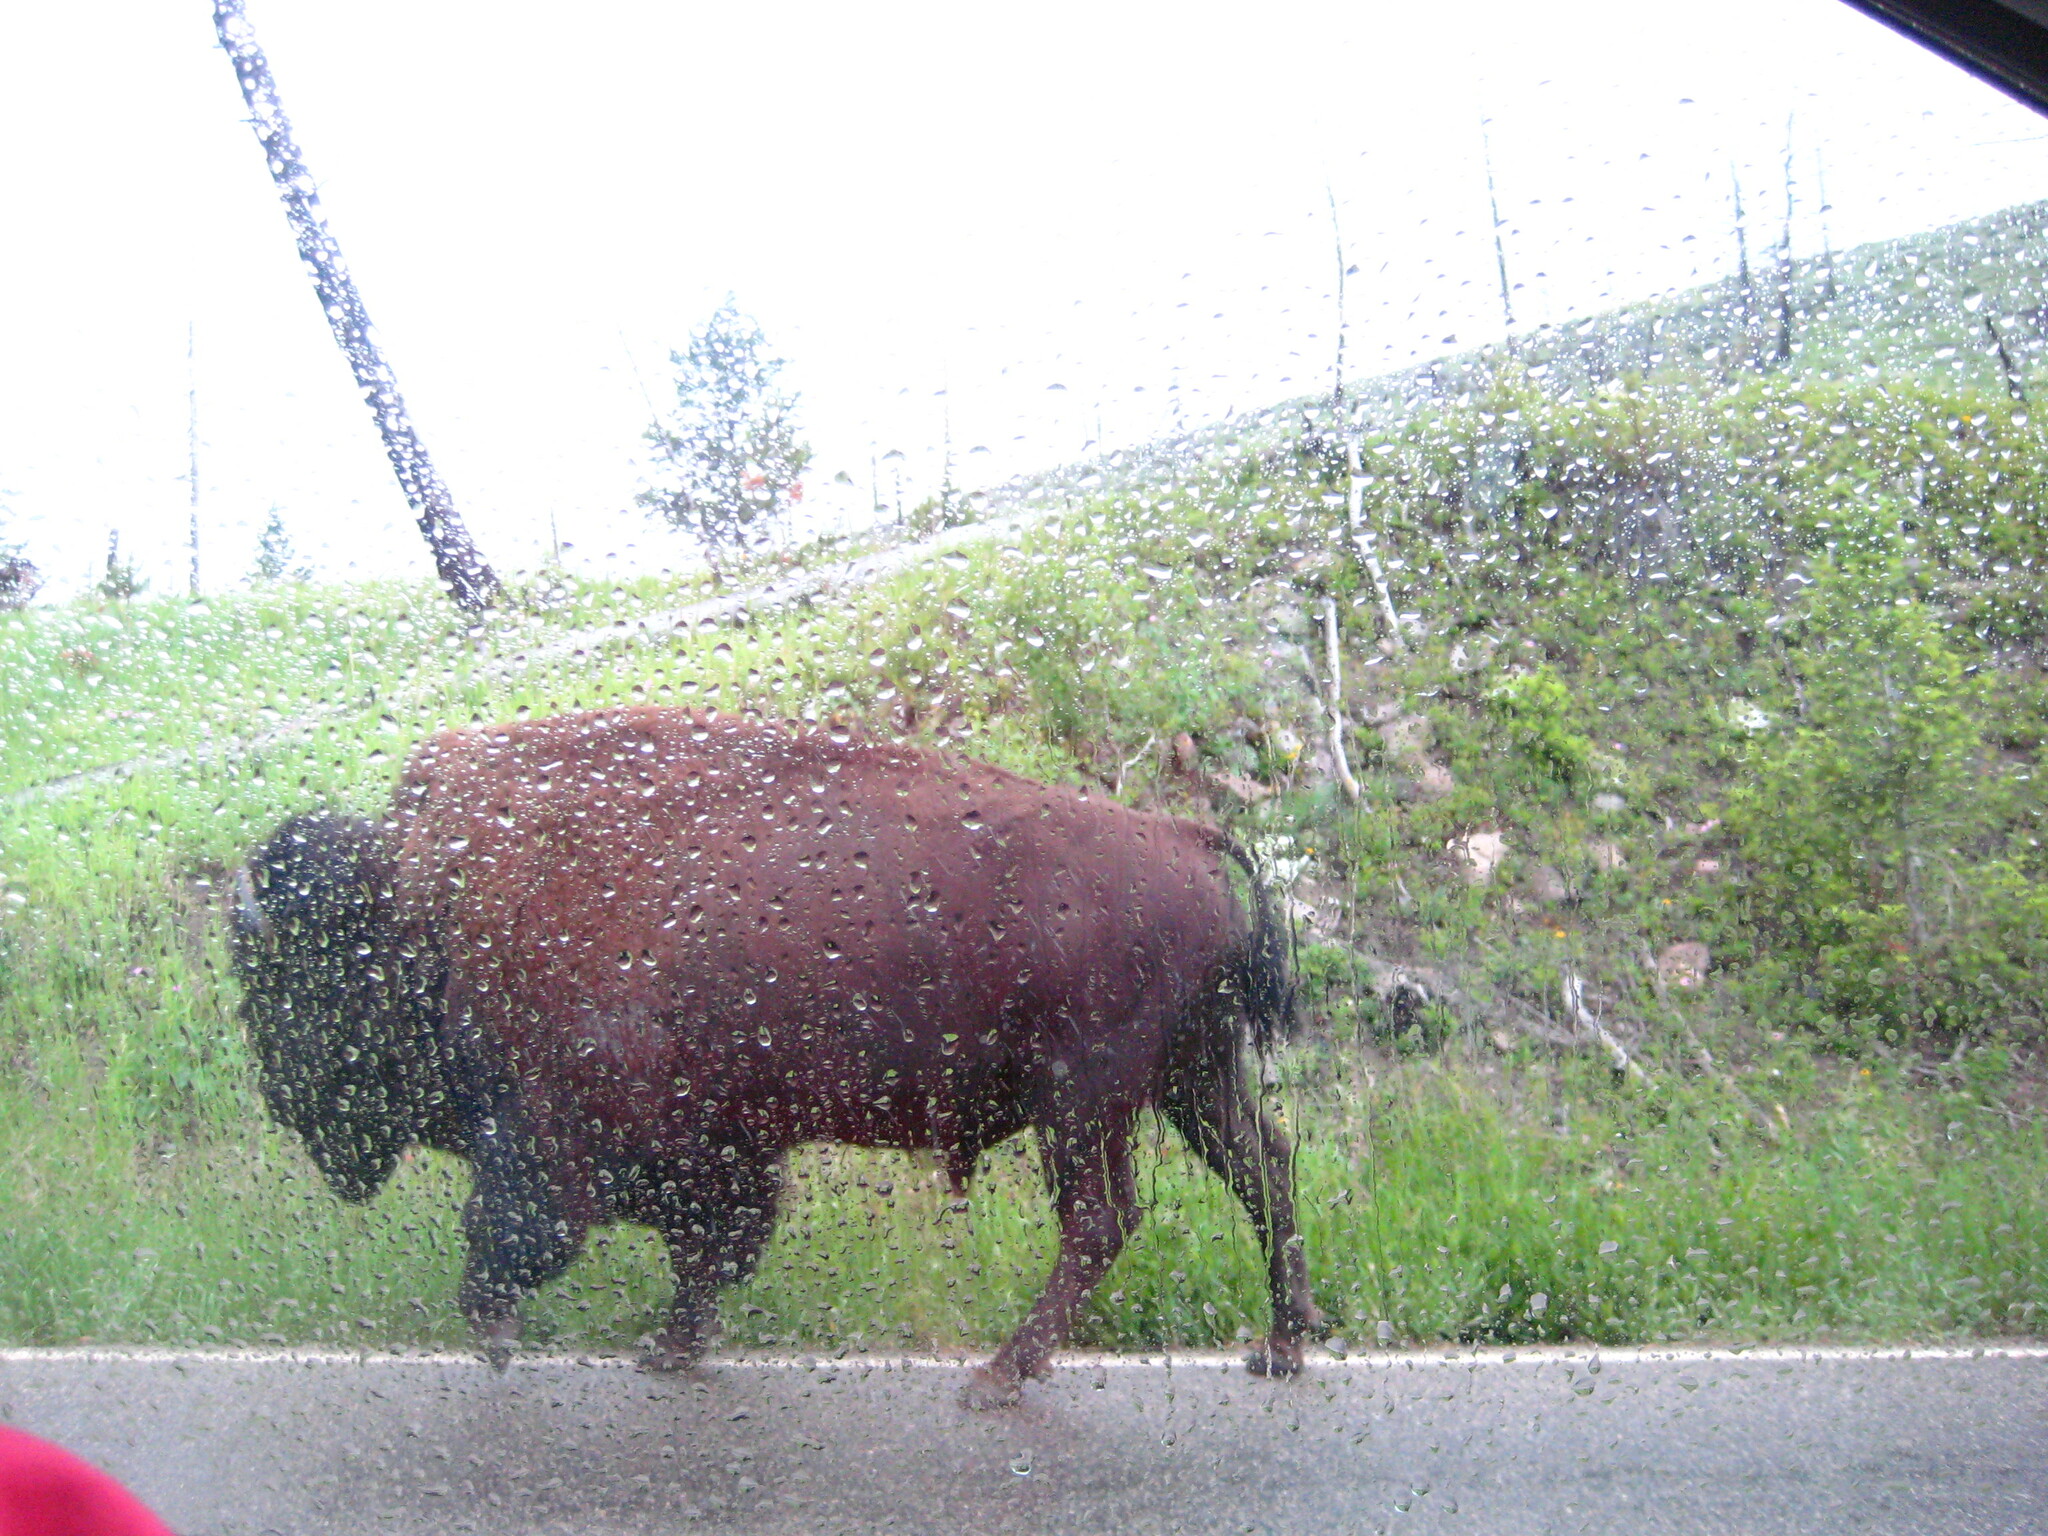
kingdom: Animalia
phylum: Chordata
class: Mammalia
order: Artiodactyla
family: Bovidae
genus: Bison
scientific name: Bison bison
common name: American bison
